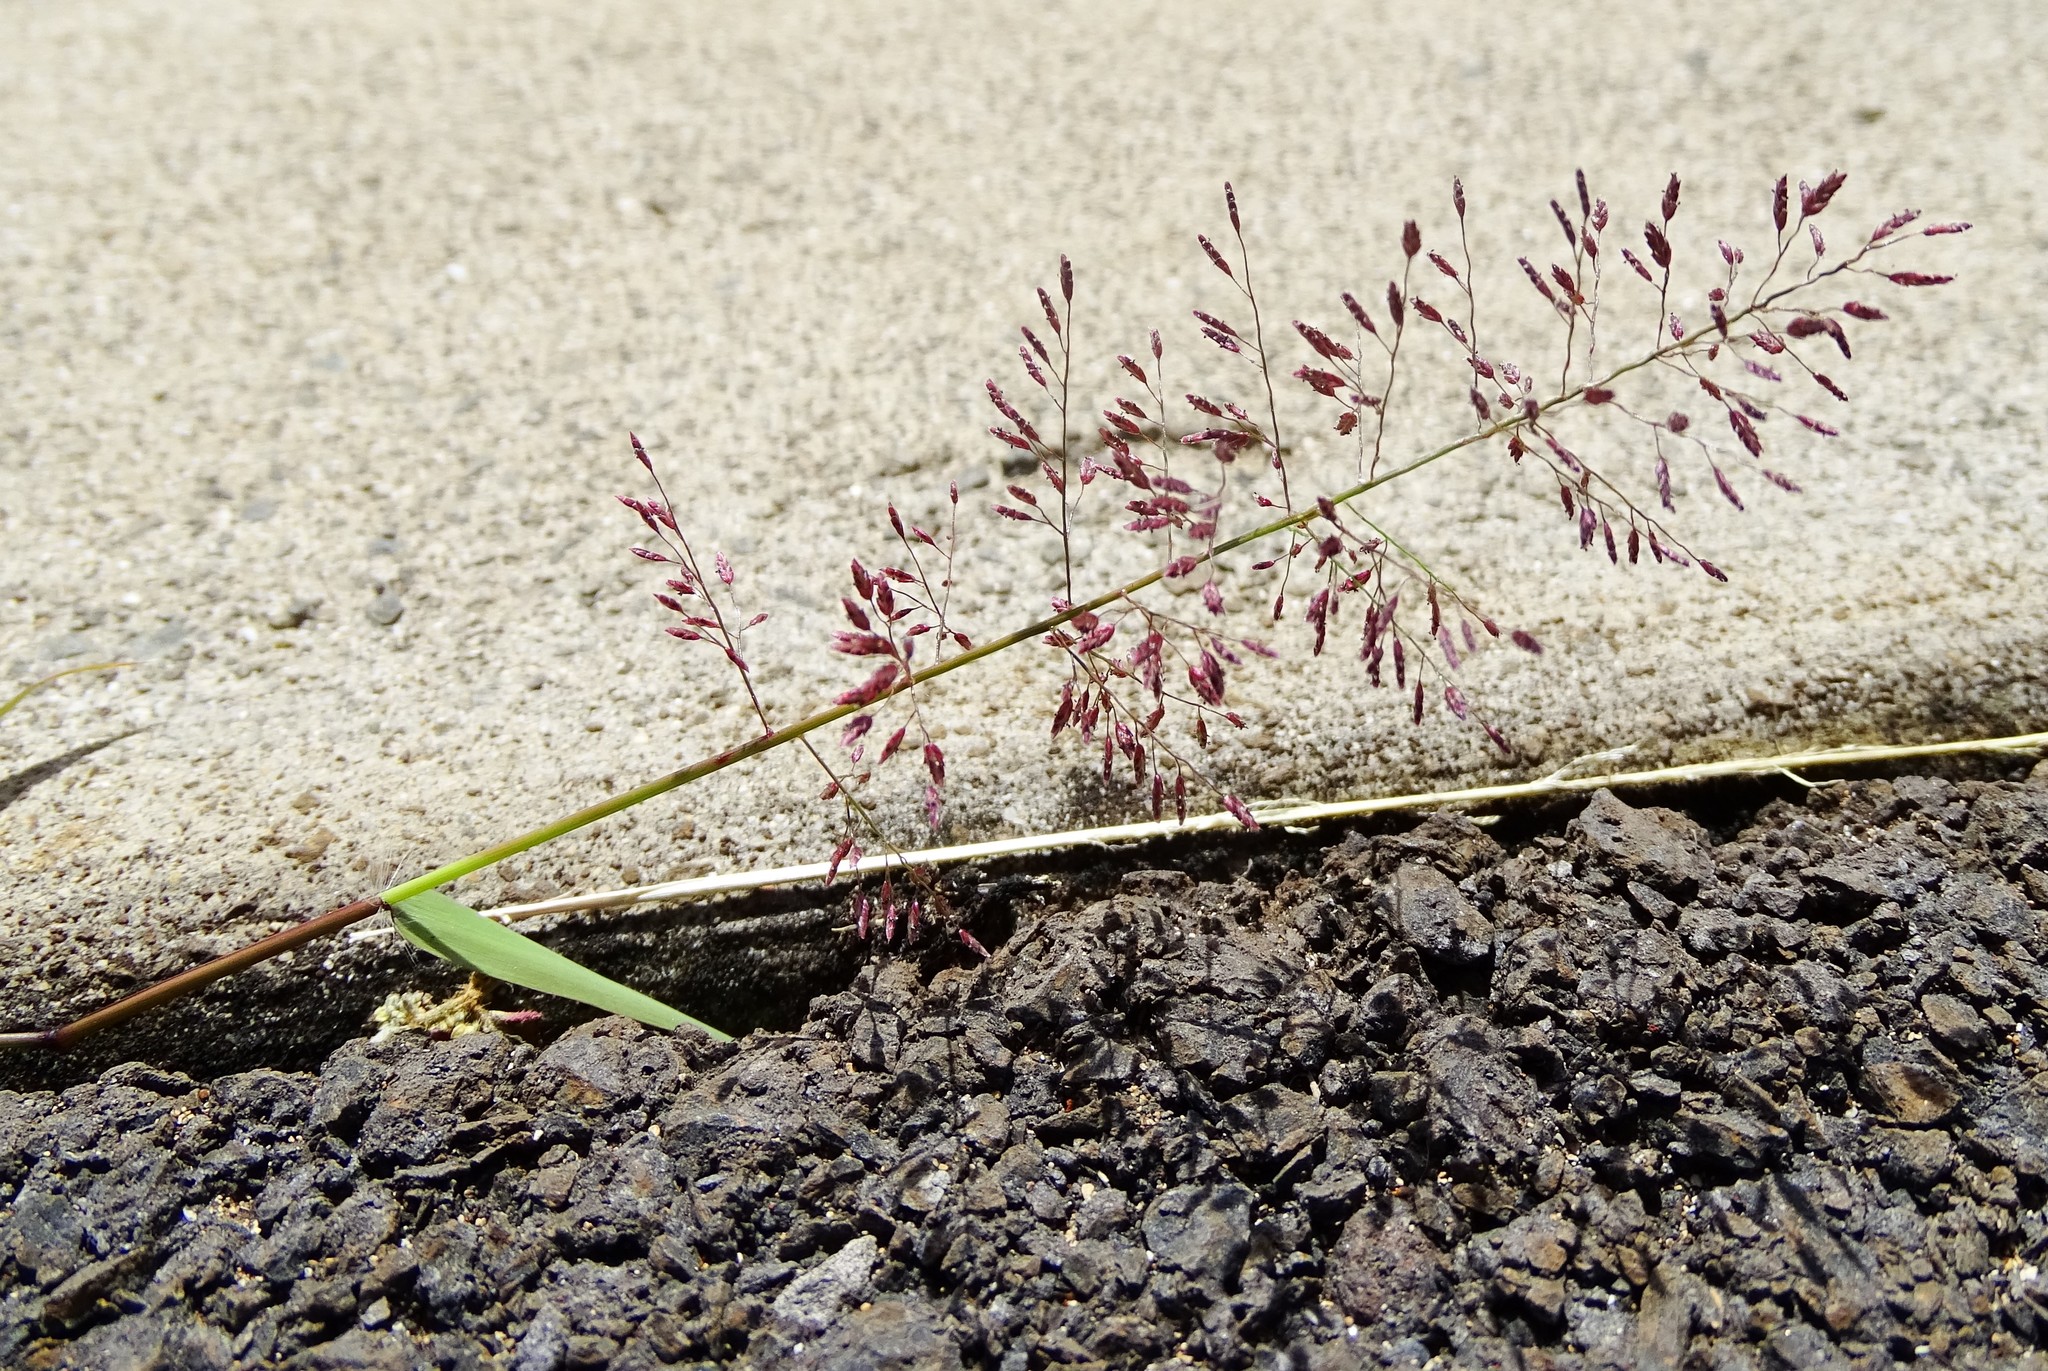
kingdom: Plantae
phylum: Tracheophyta
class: Liliopsida
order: Poales
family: Poaceae
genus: Eragrostis
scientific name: Eragrostis tenella
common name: Japanese lovegrass
